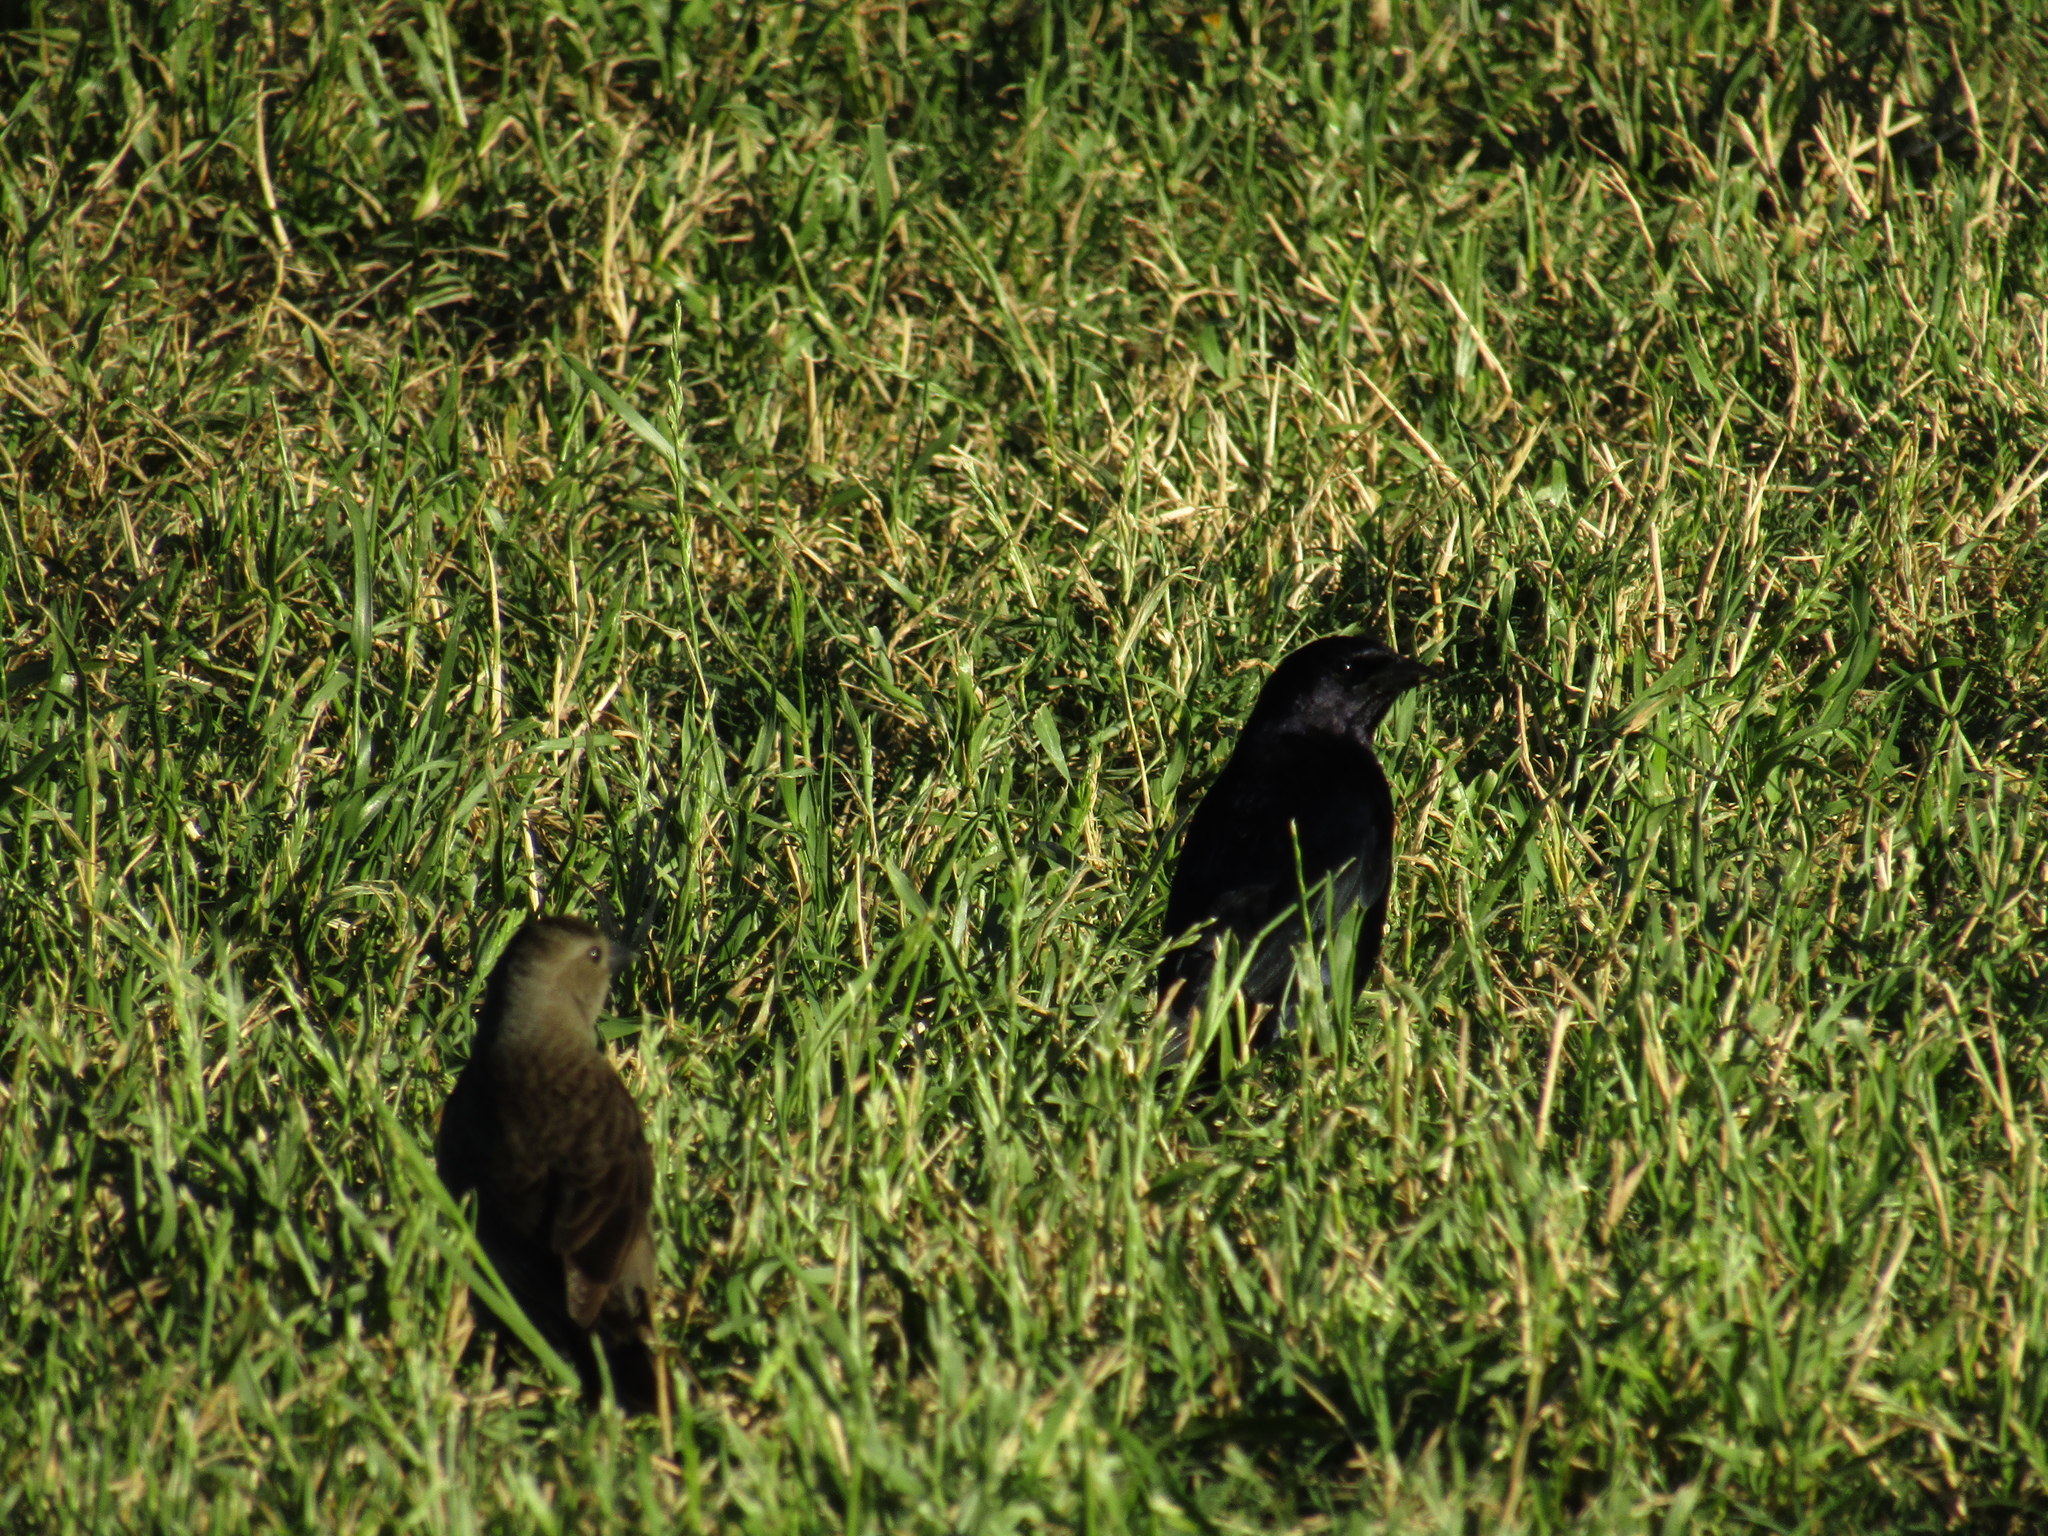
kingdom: Animalia
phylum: Chordata
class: Aves
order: Passeriformes
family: Icteridae
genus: Molothrus
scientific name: Molothrus bonariensis
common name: Shiny cowbird
